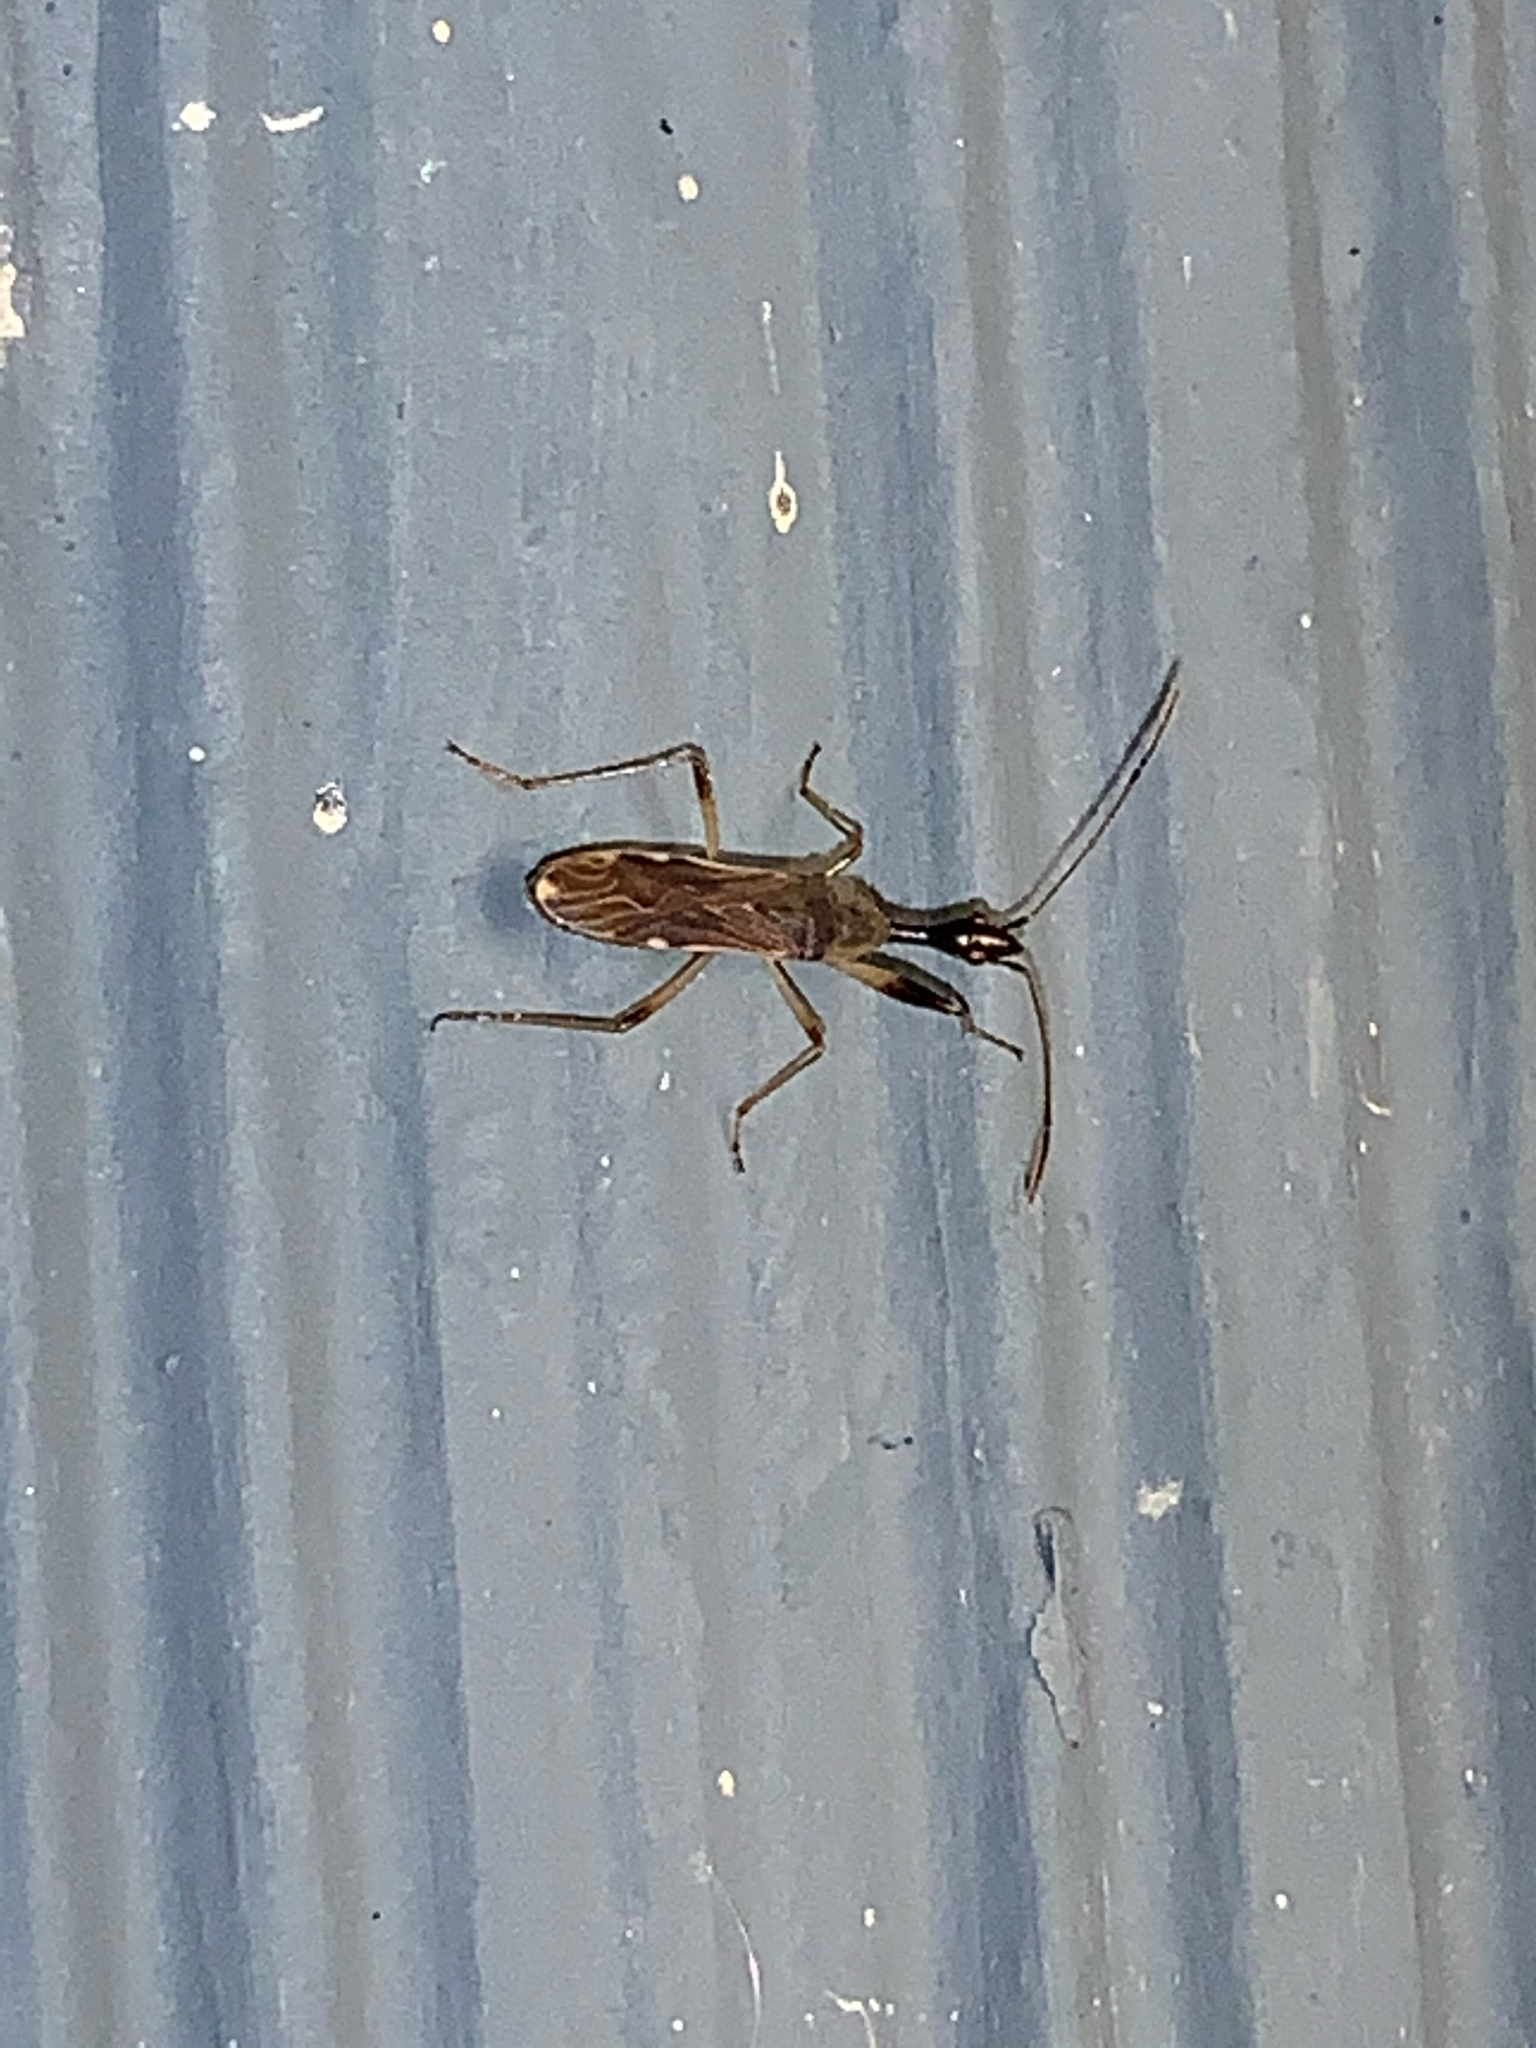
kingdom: Animalia
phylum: Arthropoda
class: Insecta
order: Hemiptera
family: Rhyparochromidae
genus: Myodocha
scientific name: Myodocha serripes
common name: Long-necked seed bug
